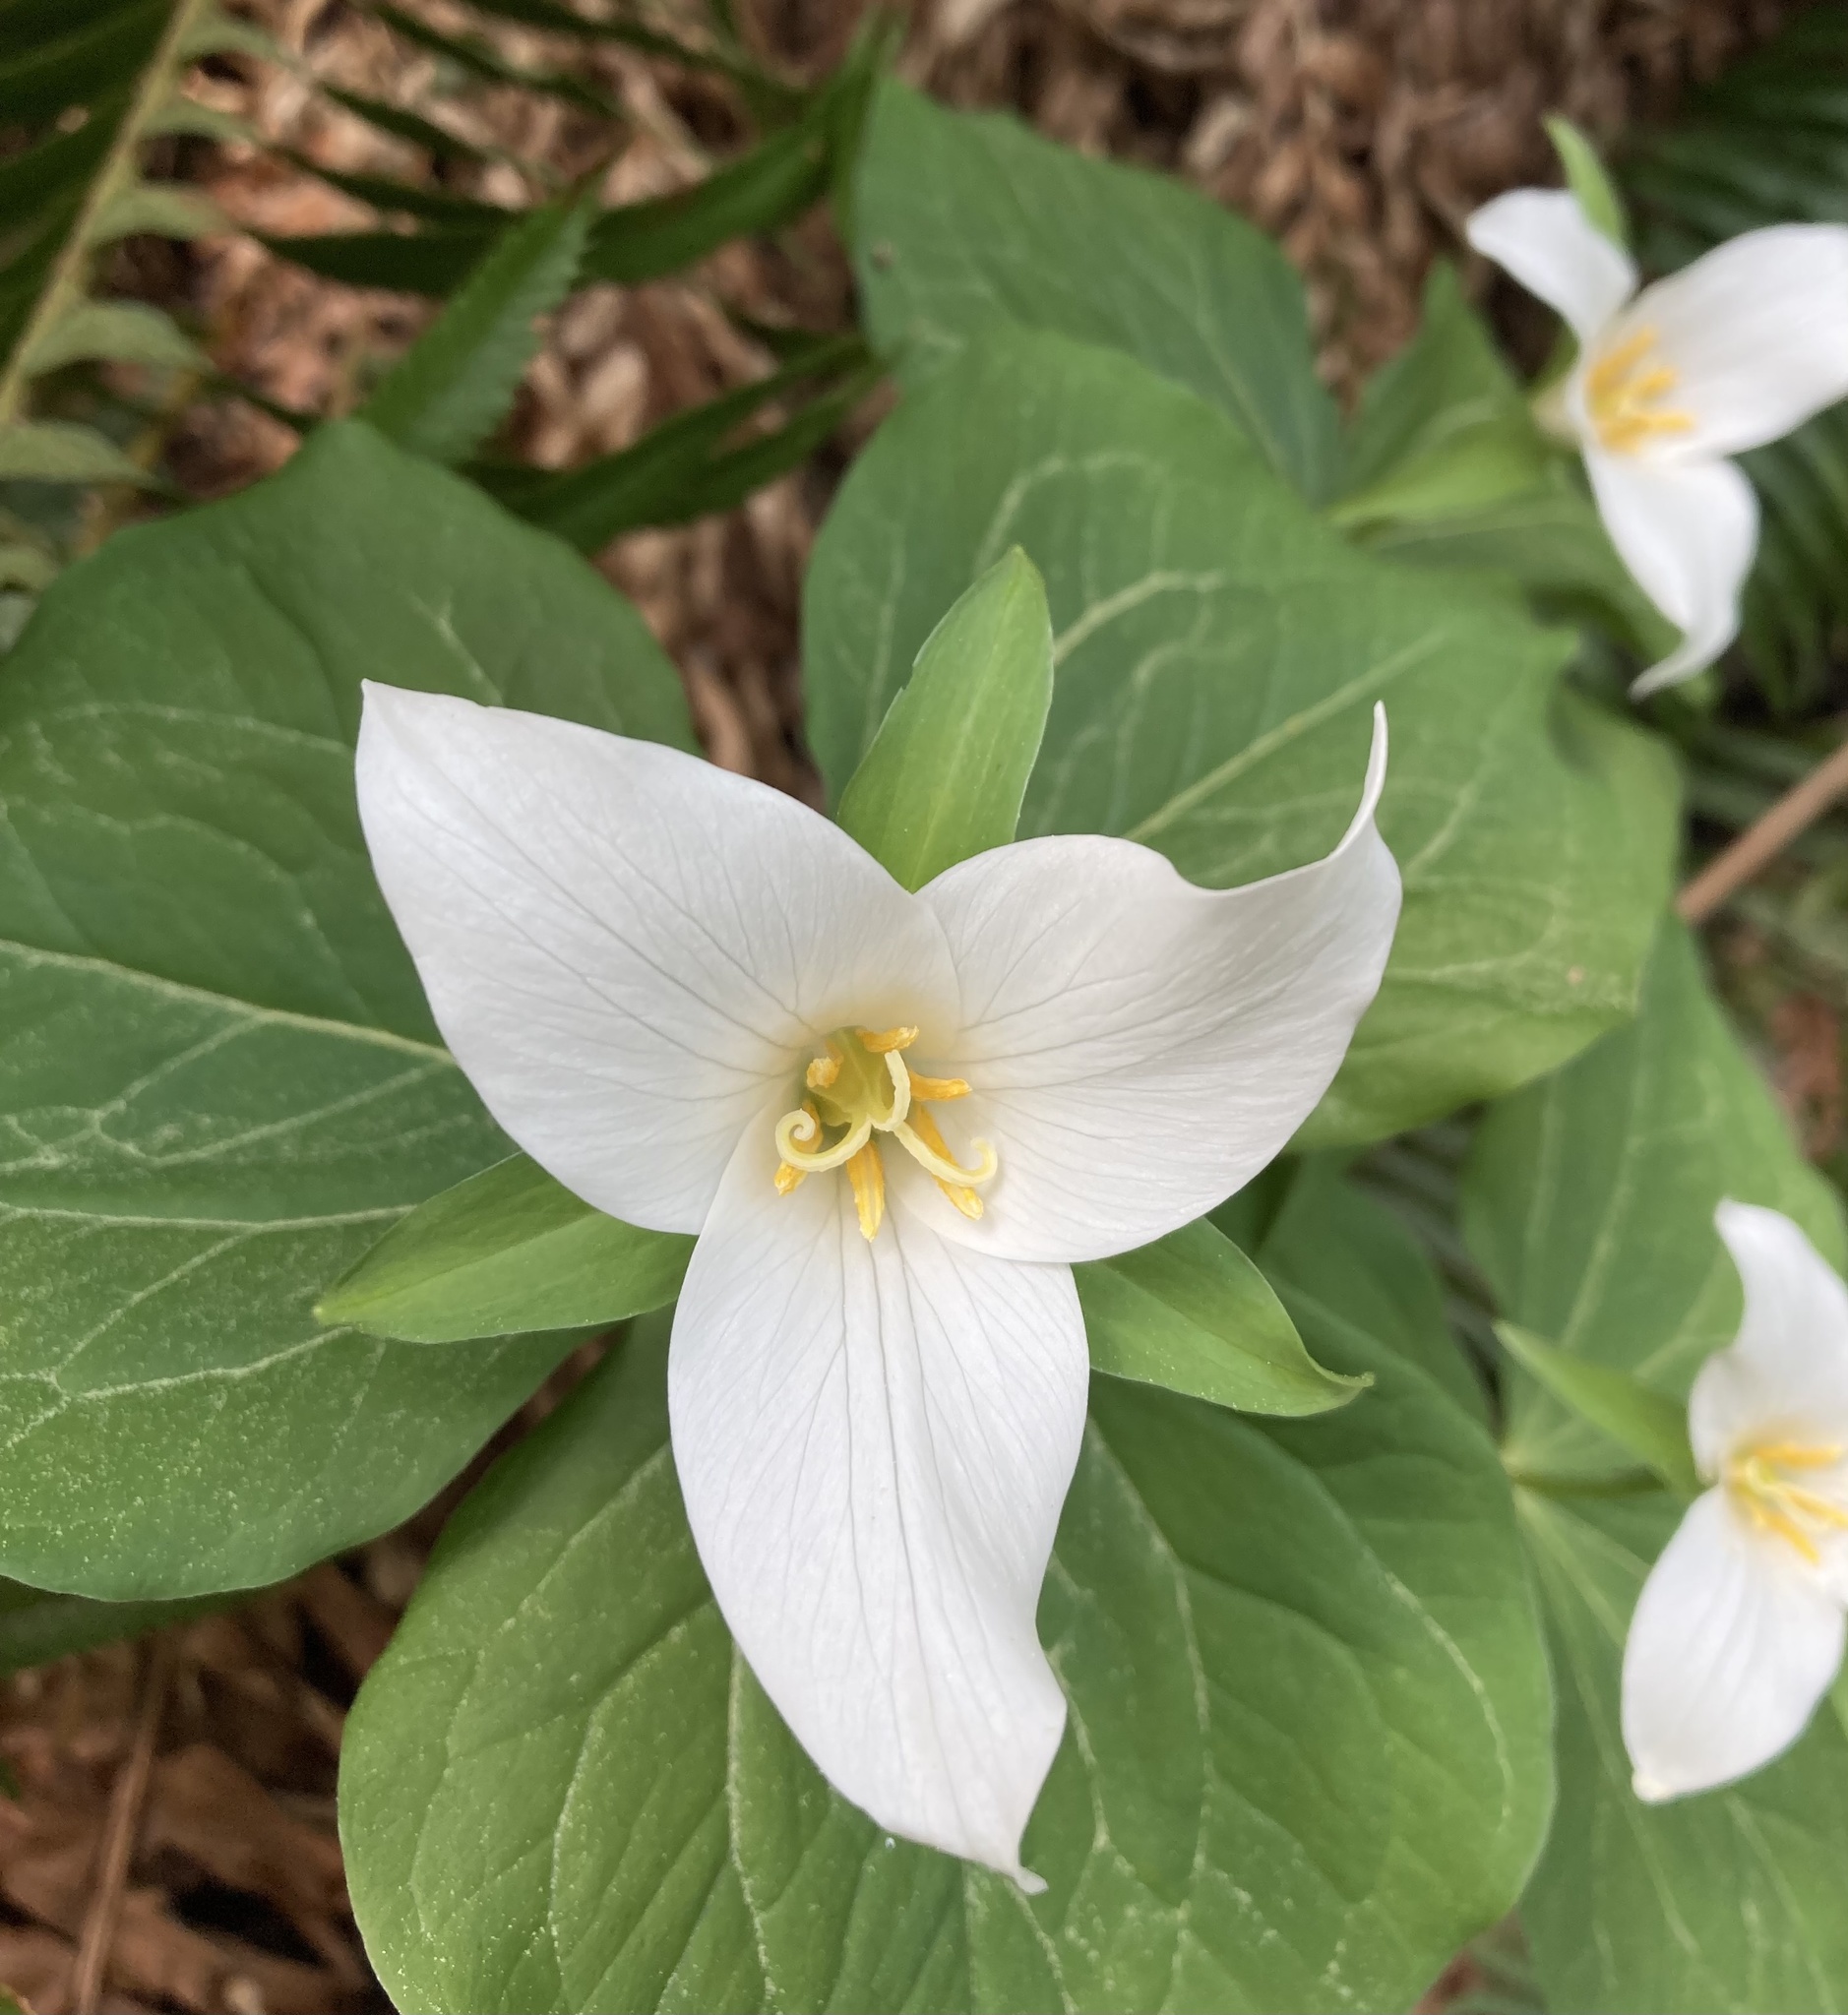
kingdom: Plantae
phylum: Tracheophyta
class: Liliopsida
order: Liliales
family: Melanthiaceae
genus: Trillium
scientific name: Trillium ovatum
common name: Pacific trillium
